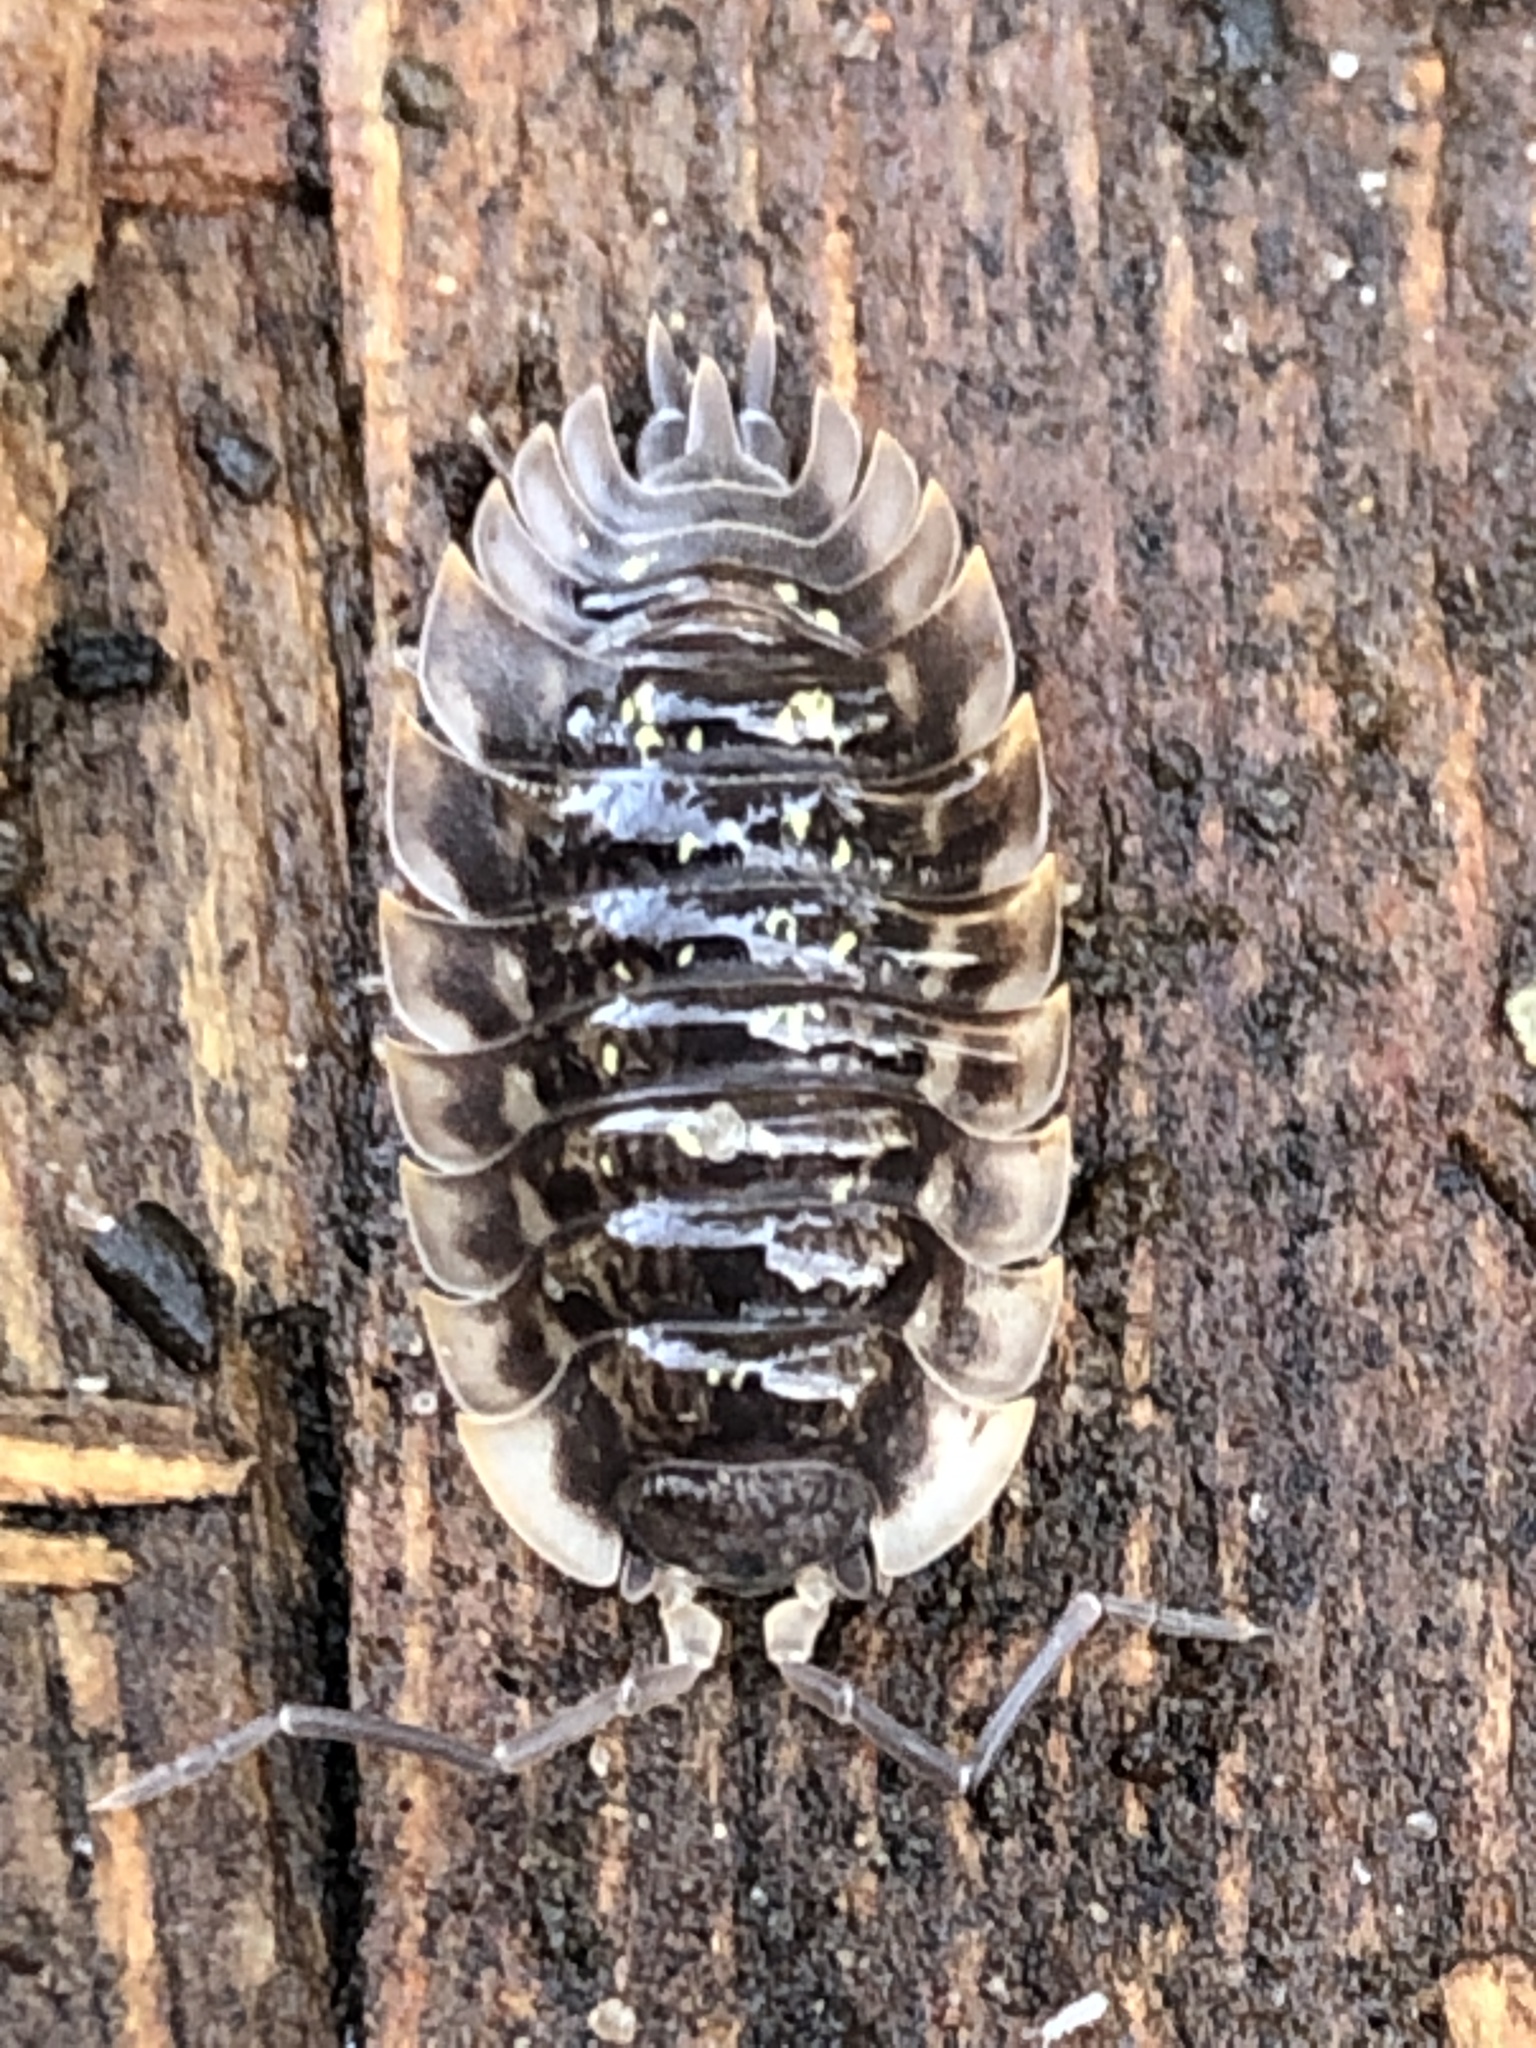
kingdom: Animalia
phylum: Arthropoda
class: Malacostraca
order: Isopoda
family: Oniscidae
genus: Oniscus
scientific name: Oniscus asellus
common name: Common shiny woodlouse
